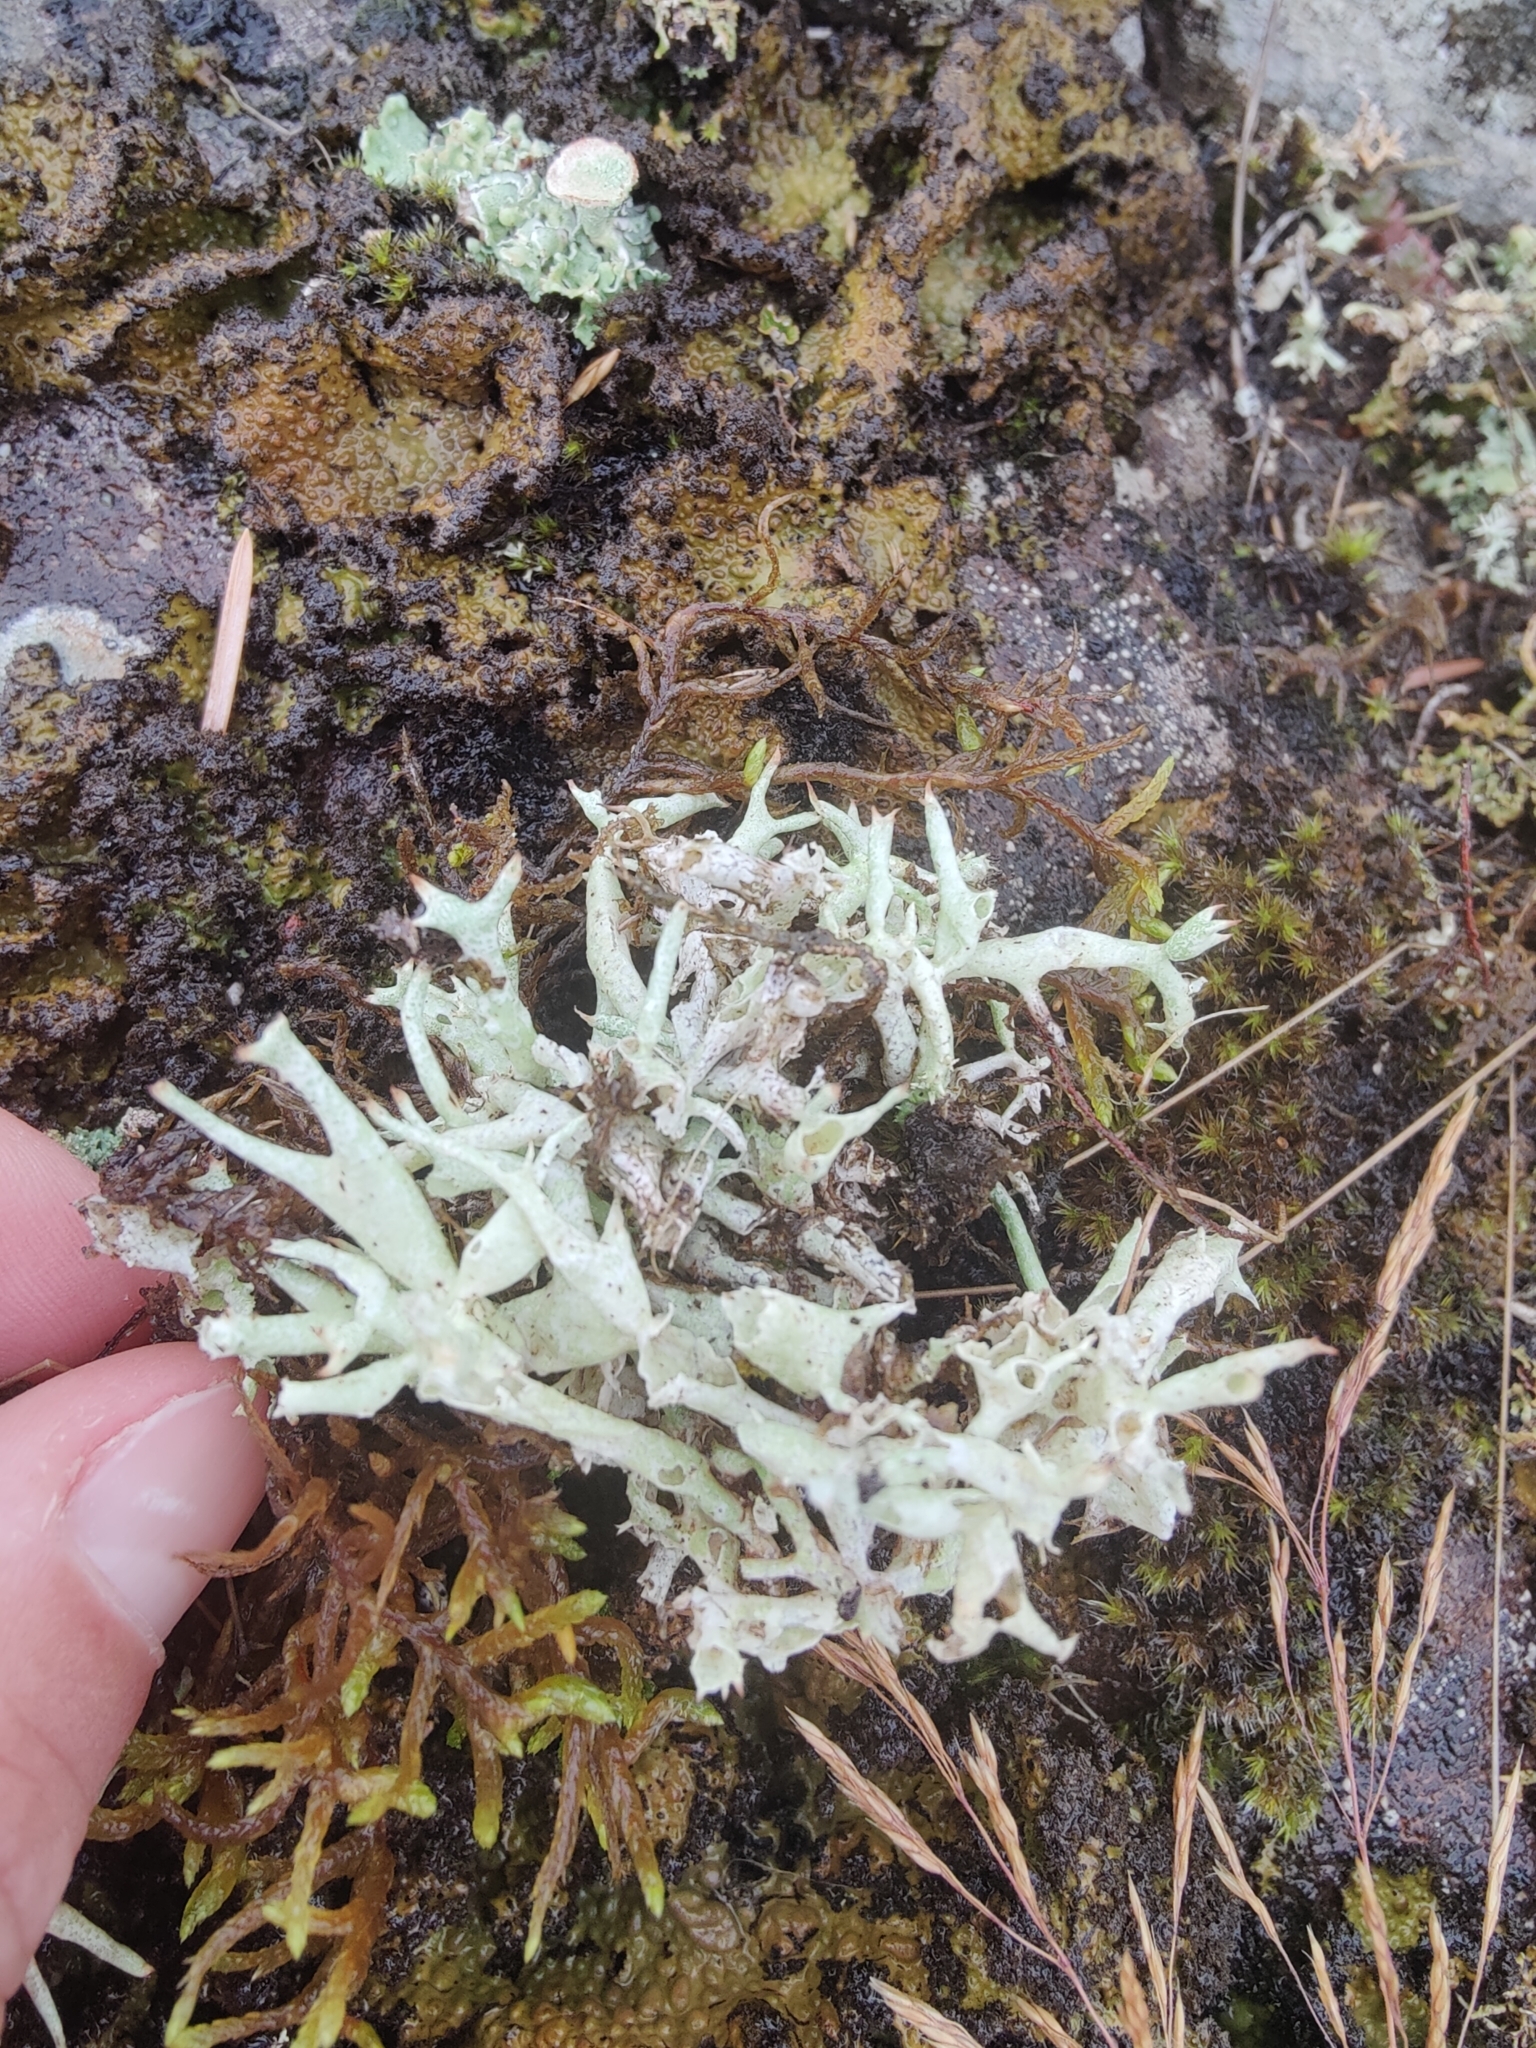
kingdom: Fungi
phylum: Ascomycota
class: Lecanoromycetes
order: Lecanorales
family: Cladoniaceae
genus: Cladonia
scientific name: Cladonia uncialis
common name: Thorn lichen
